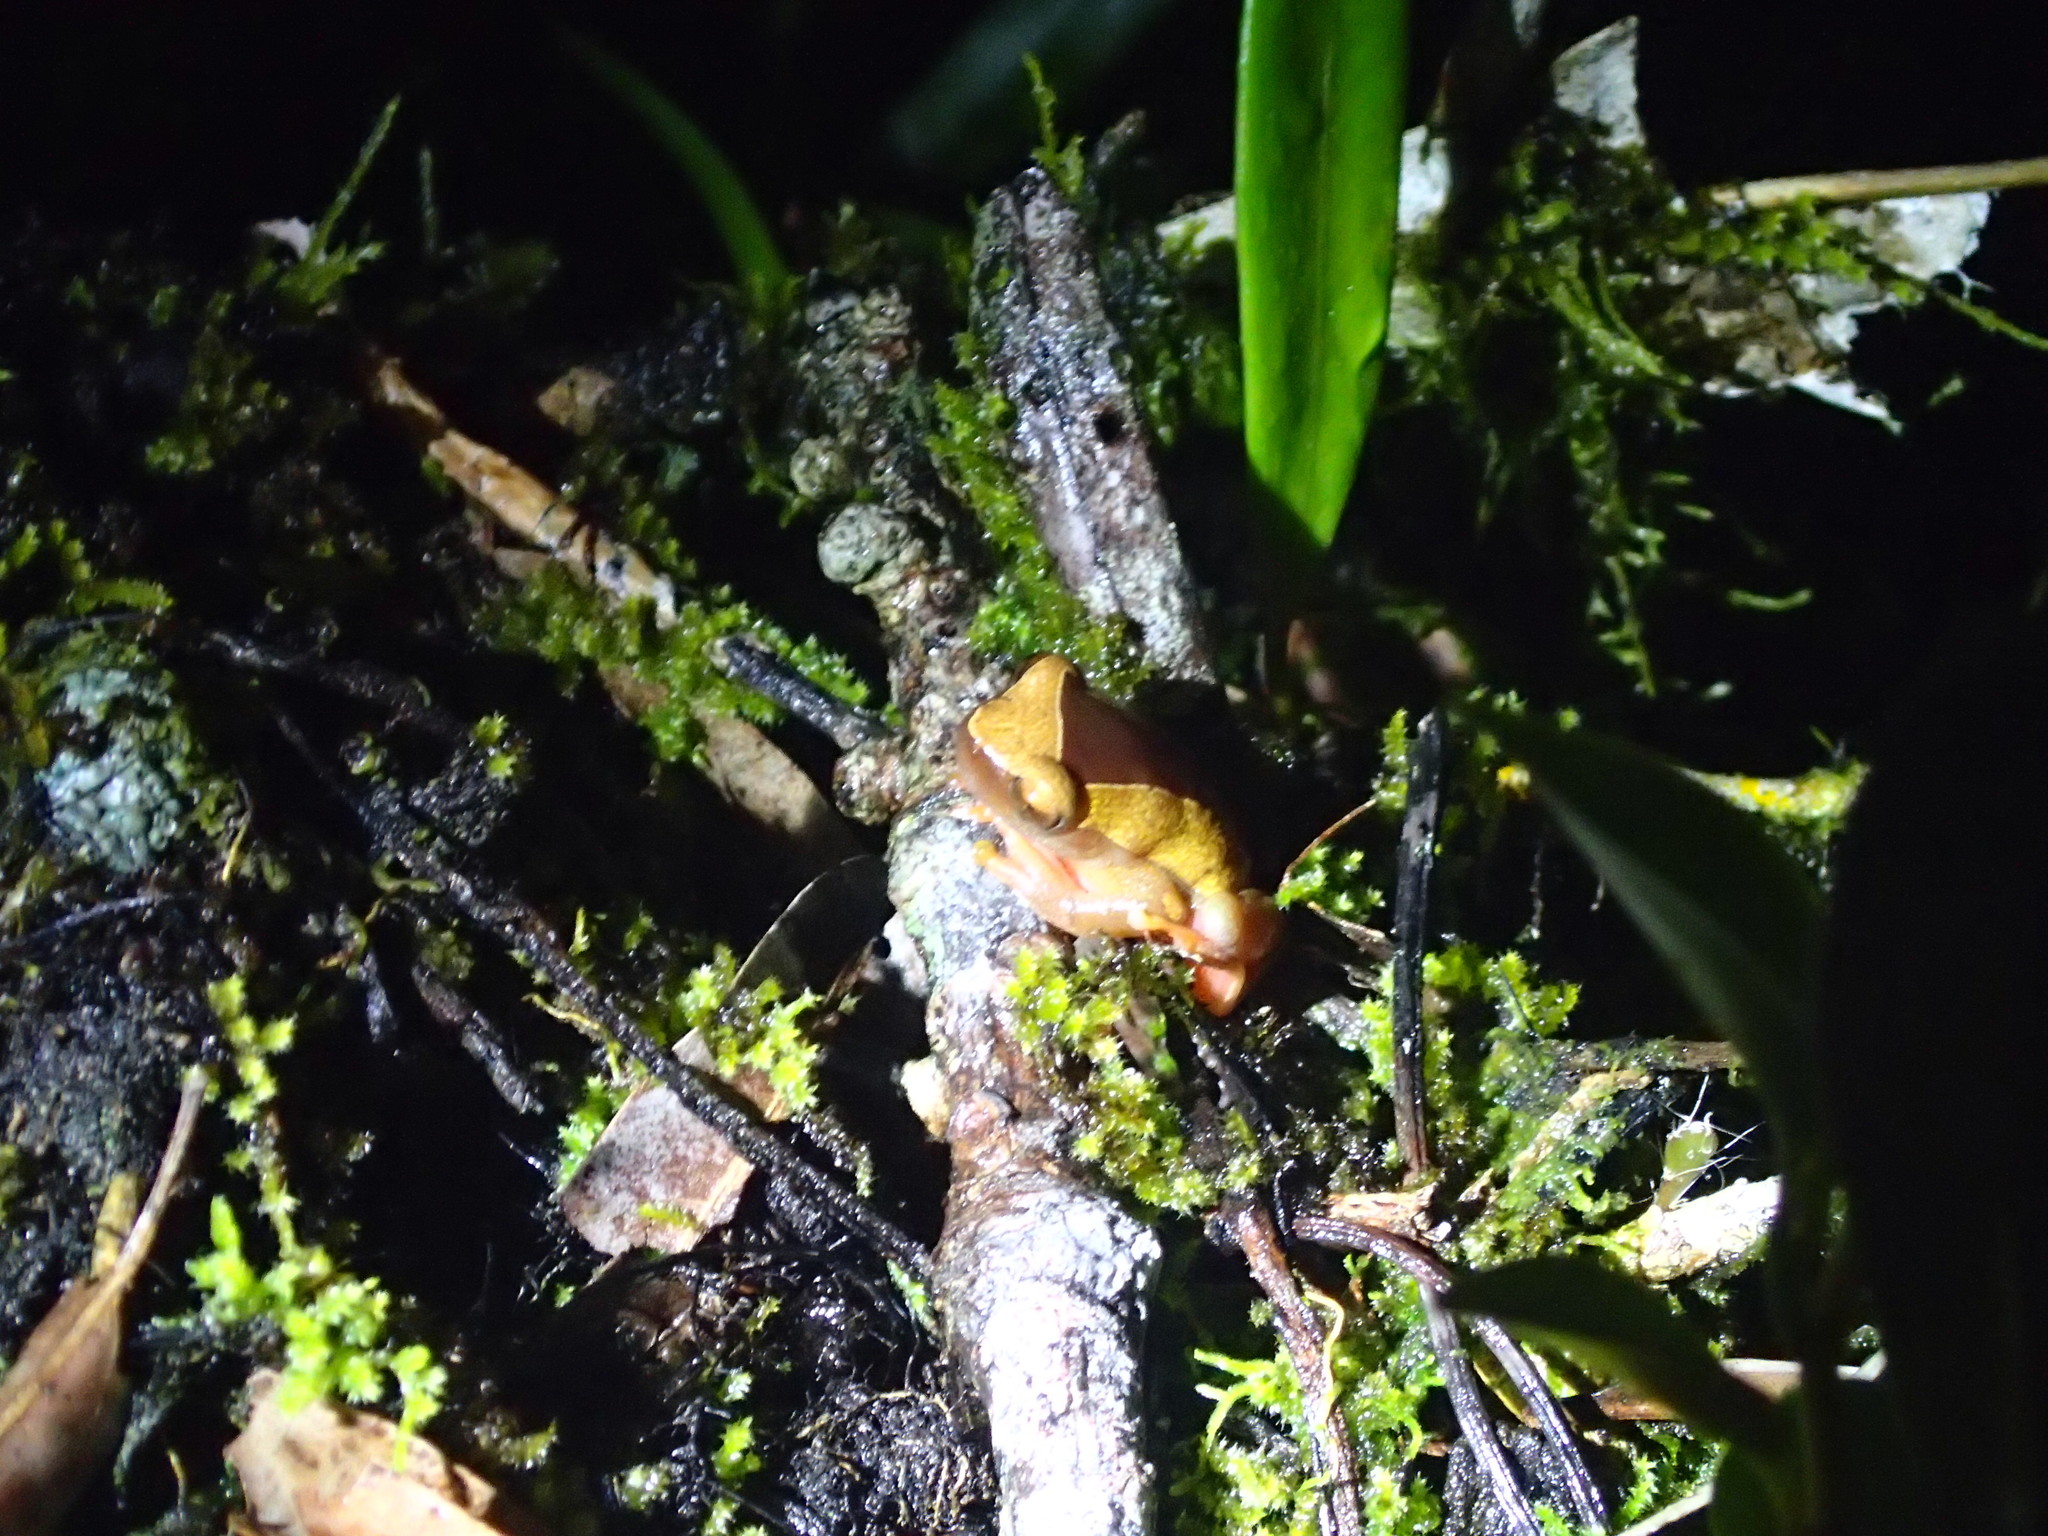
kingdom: Animalia
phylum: Chordata
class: Amphibia
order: Anura
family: Hylidae
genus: Dendropsophus
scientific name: Dendropsophus triangulum
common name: Triangle treefrog
